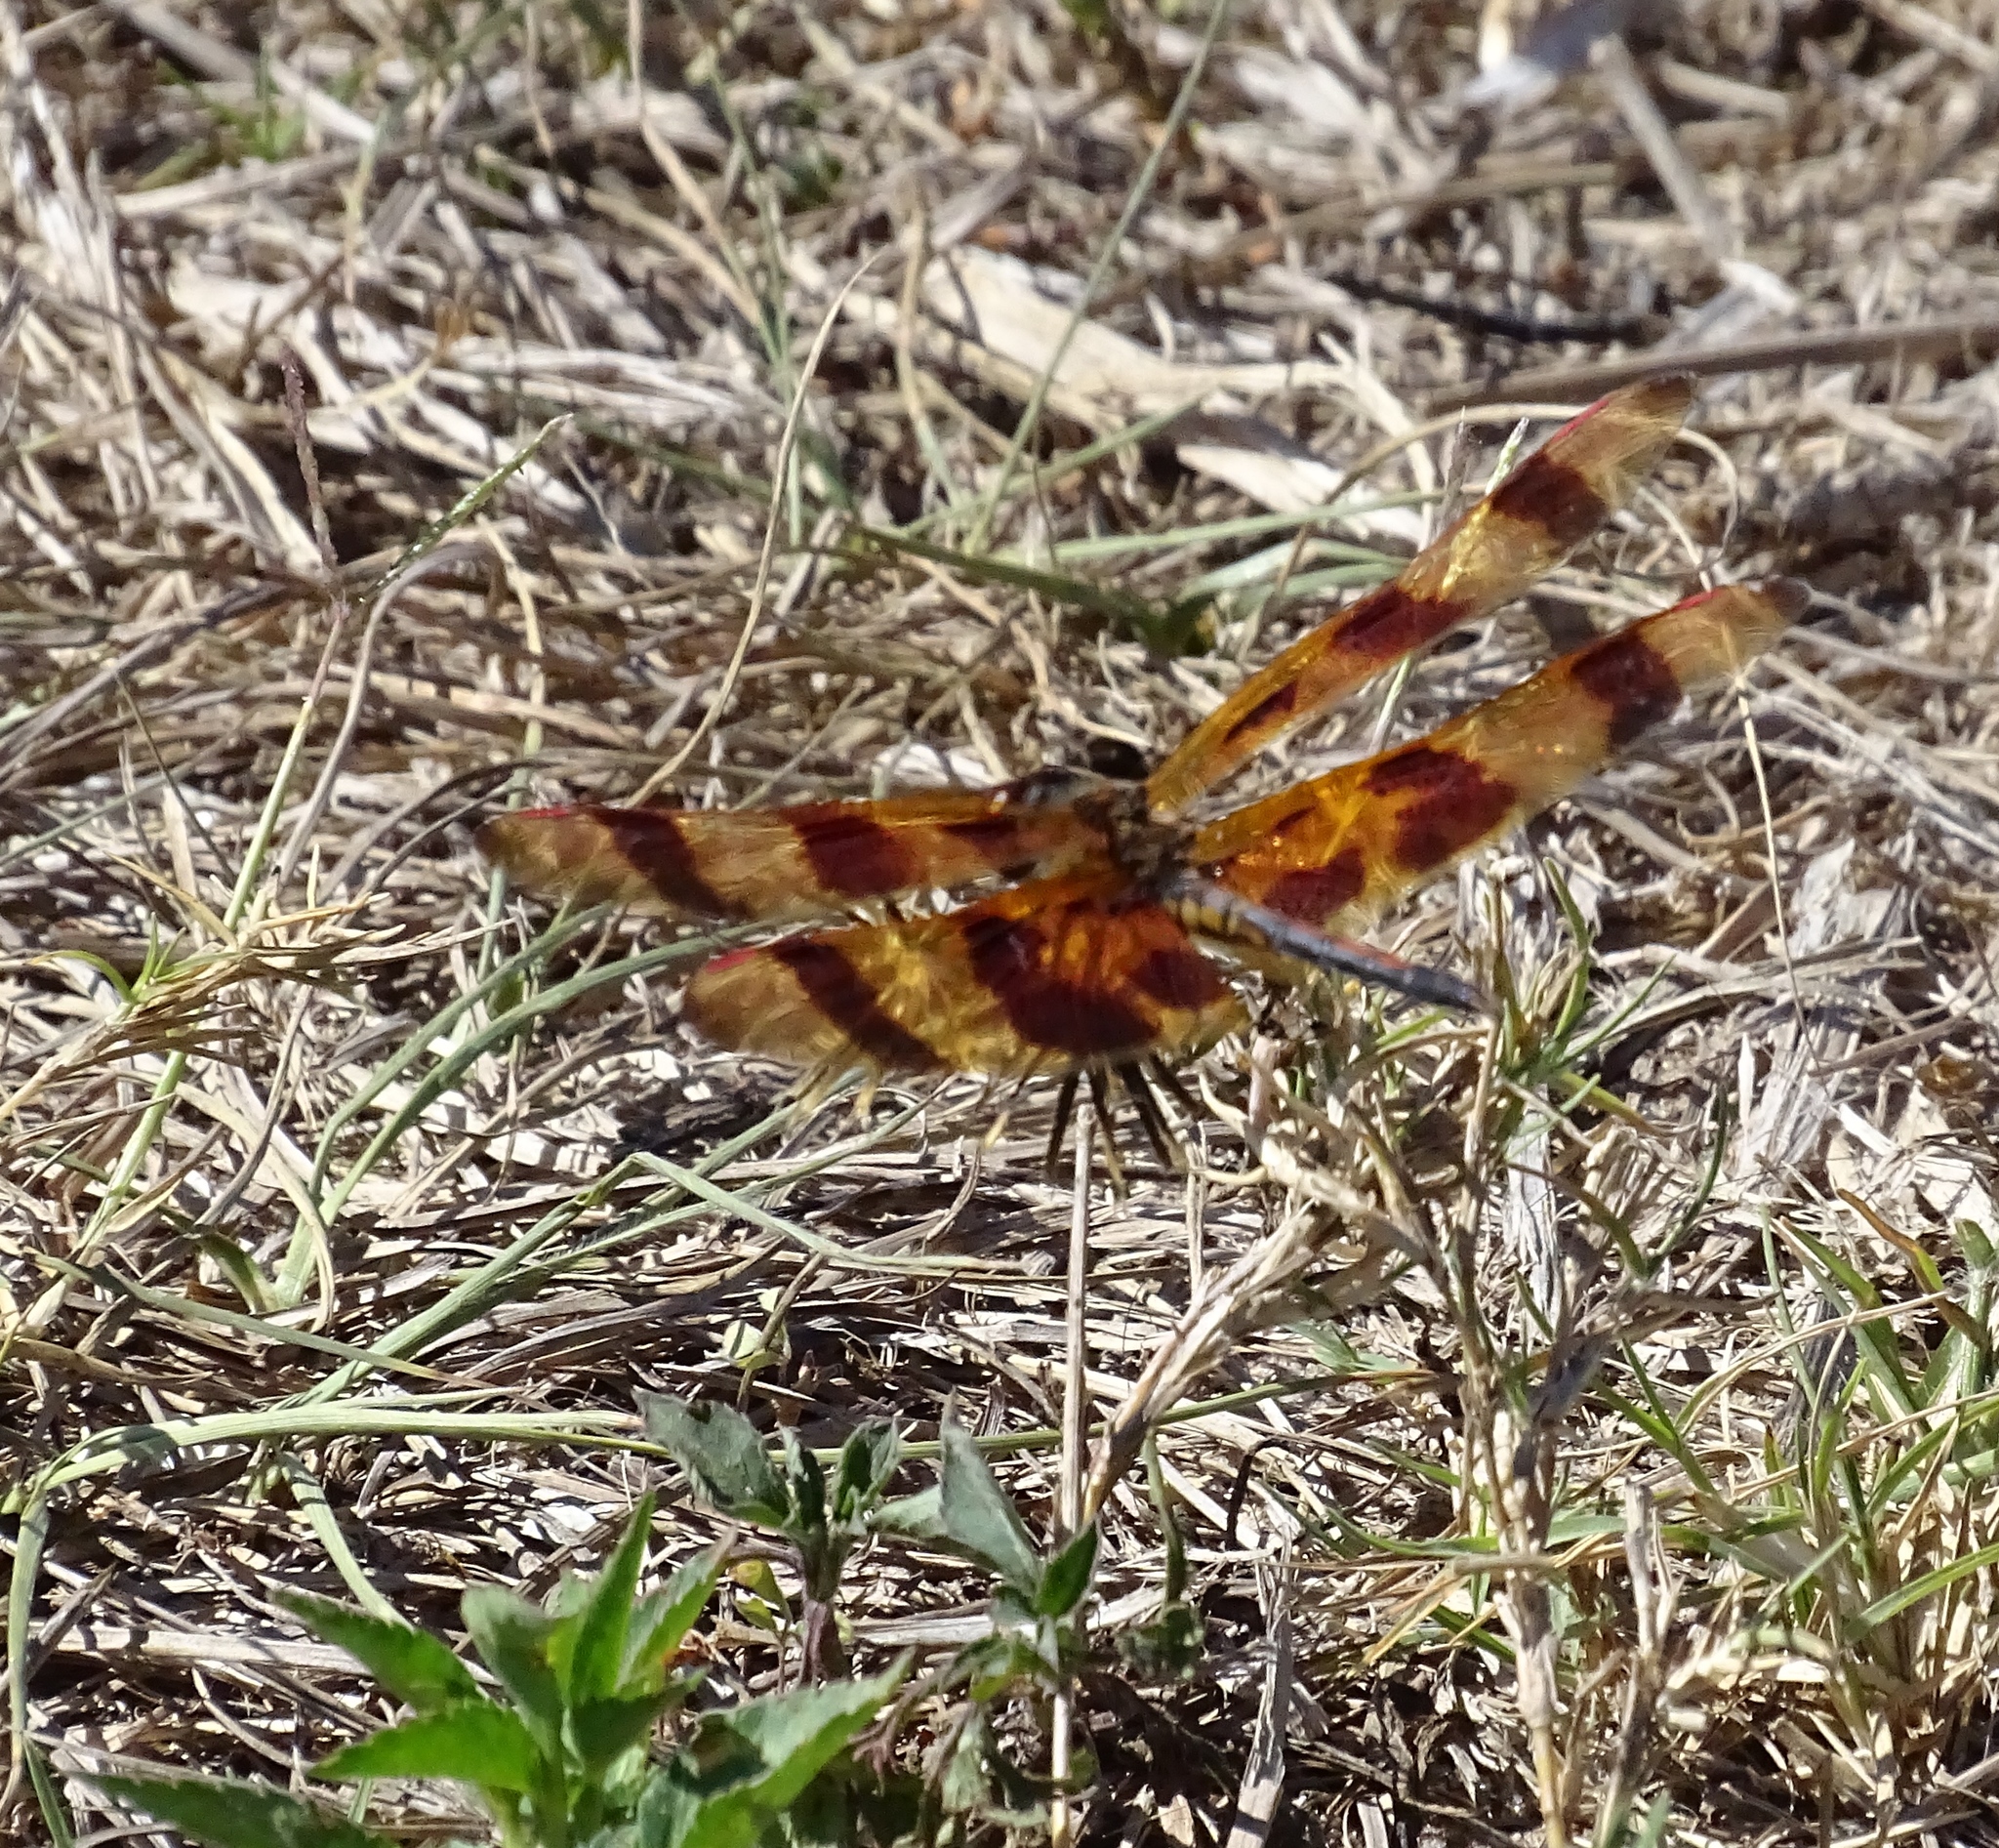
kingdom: Animalia
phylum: Arthropoda
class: Insecta
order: Odonata
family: Libellulidae
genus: Celithemis
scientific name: Celithemis eponina
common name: Halloween pennant
